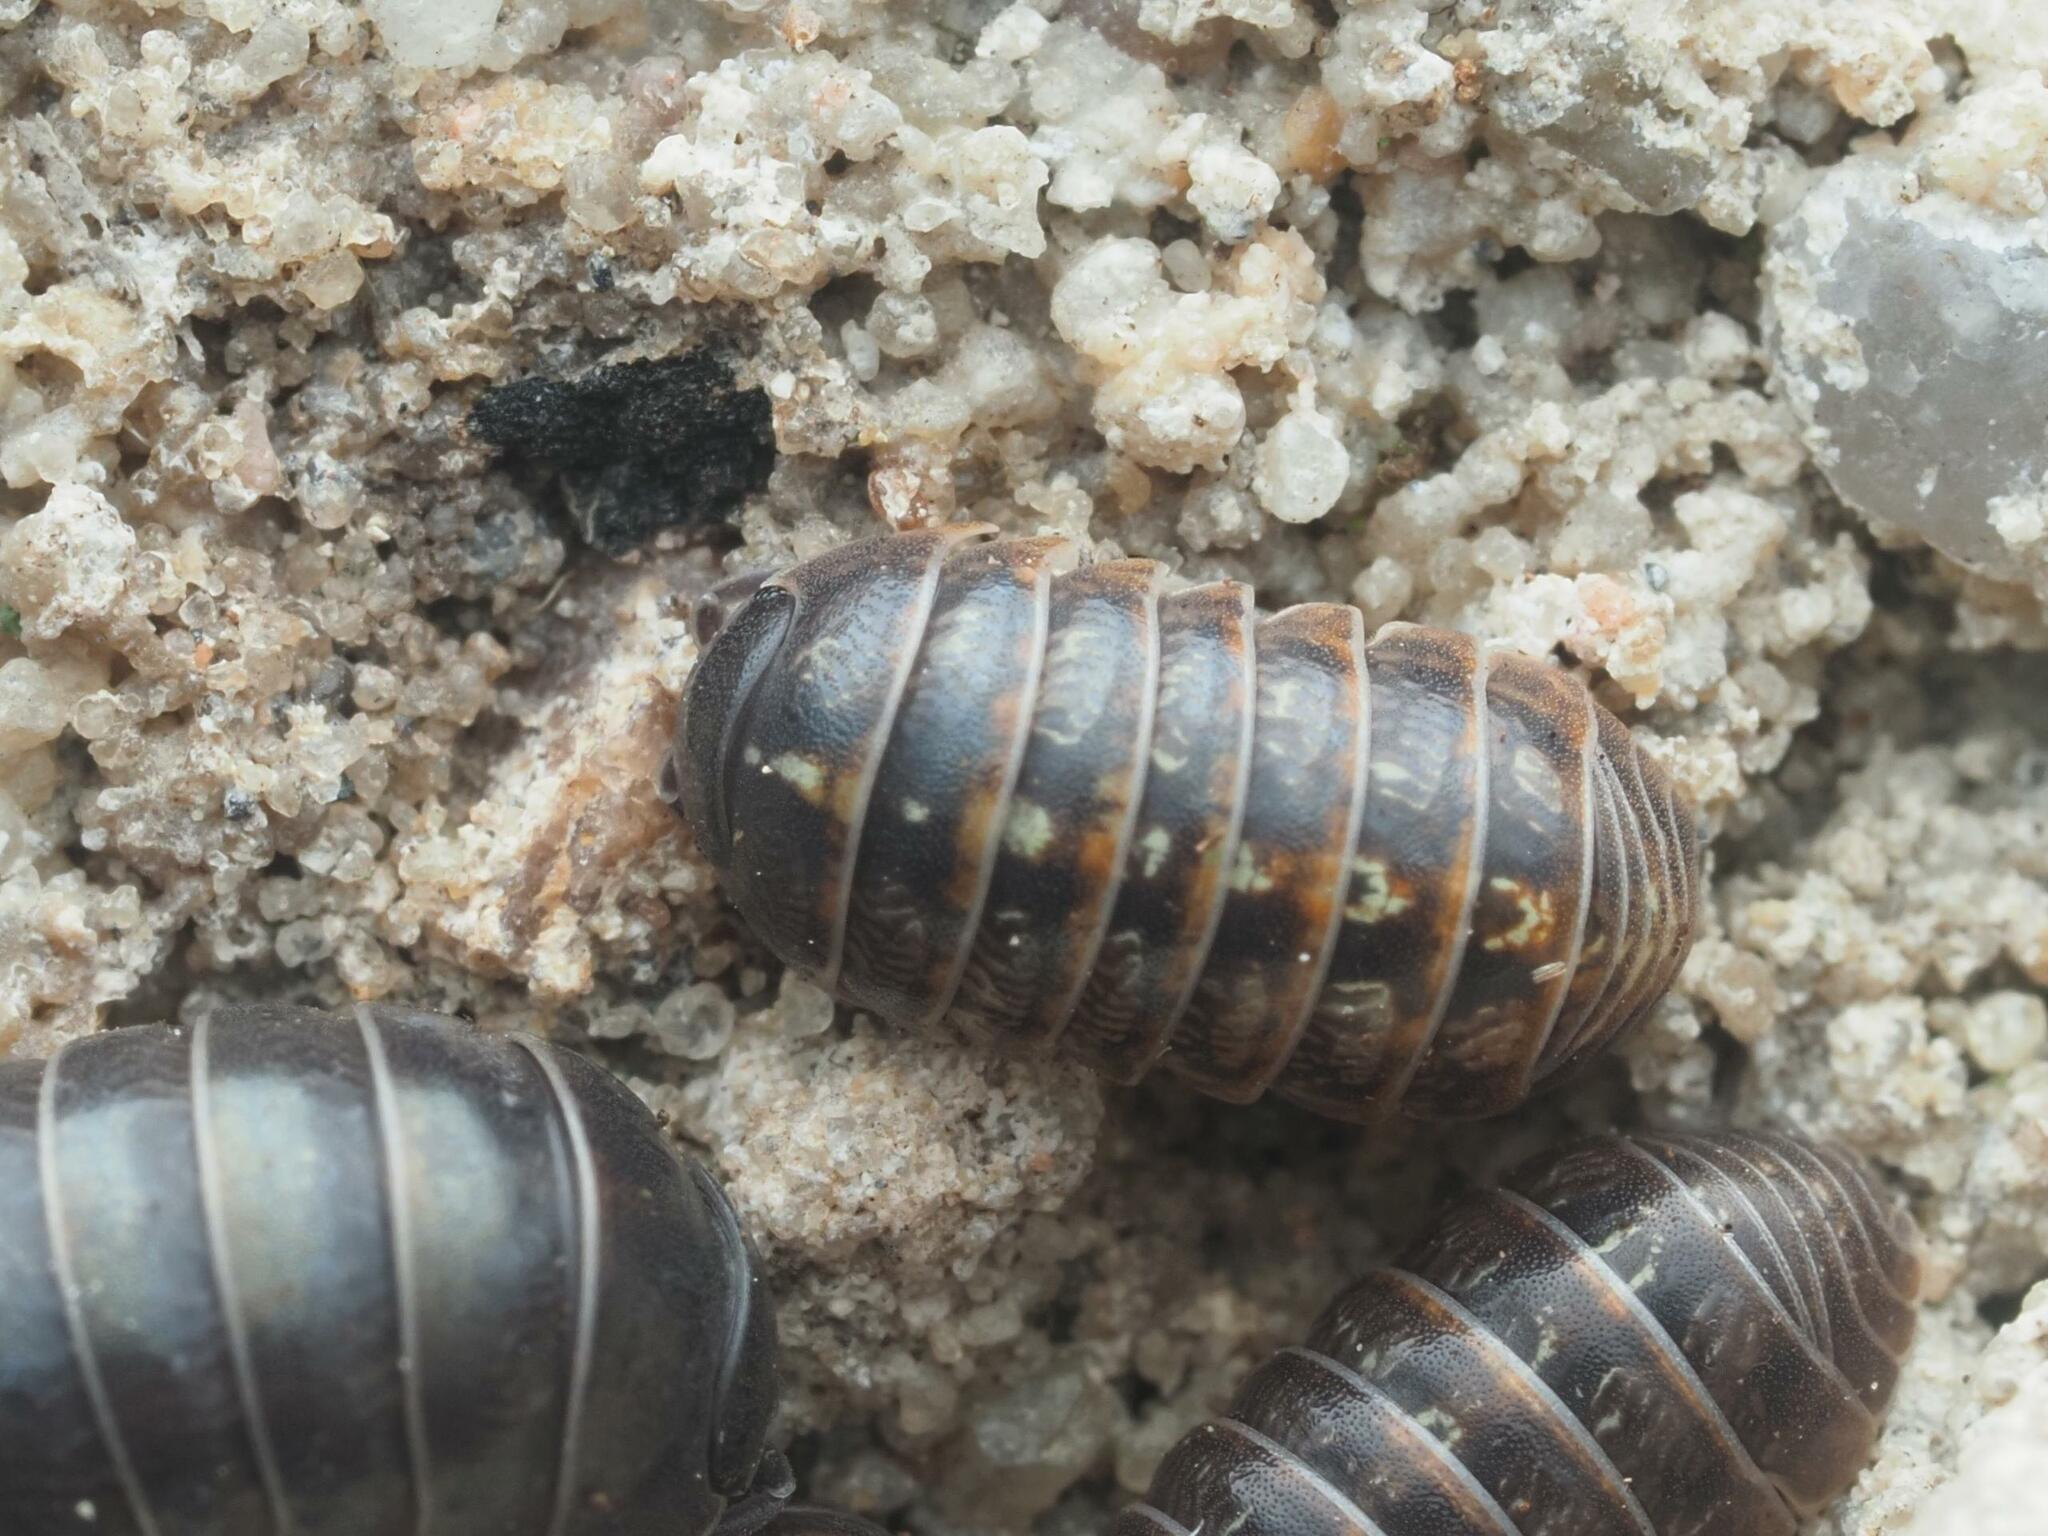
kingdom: Animalia
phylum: Arthropoda
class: Malacostraca
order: Isopoda
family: Armadillidiidae
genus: Armadillidium
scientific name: Armadillidium vulgare
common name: Common pill woodlouse
